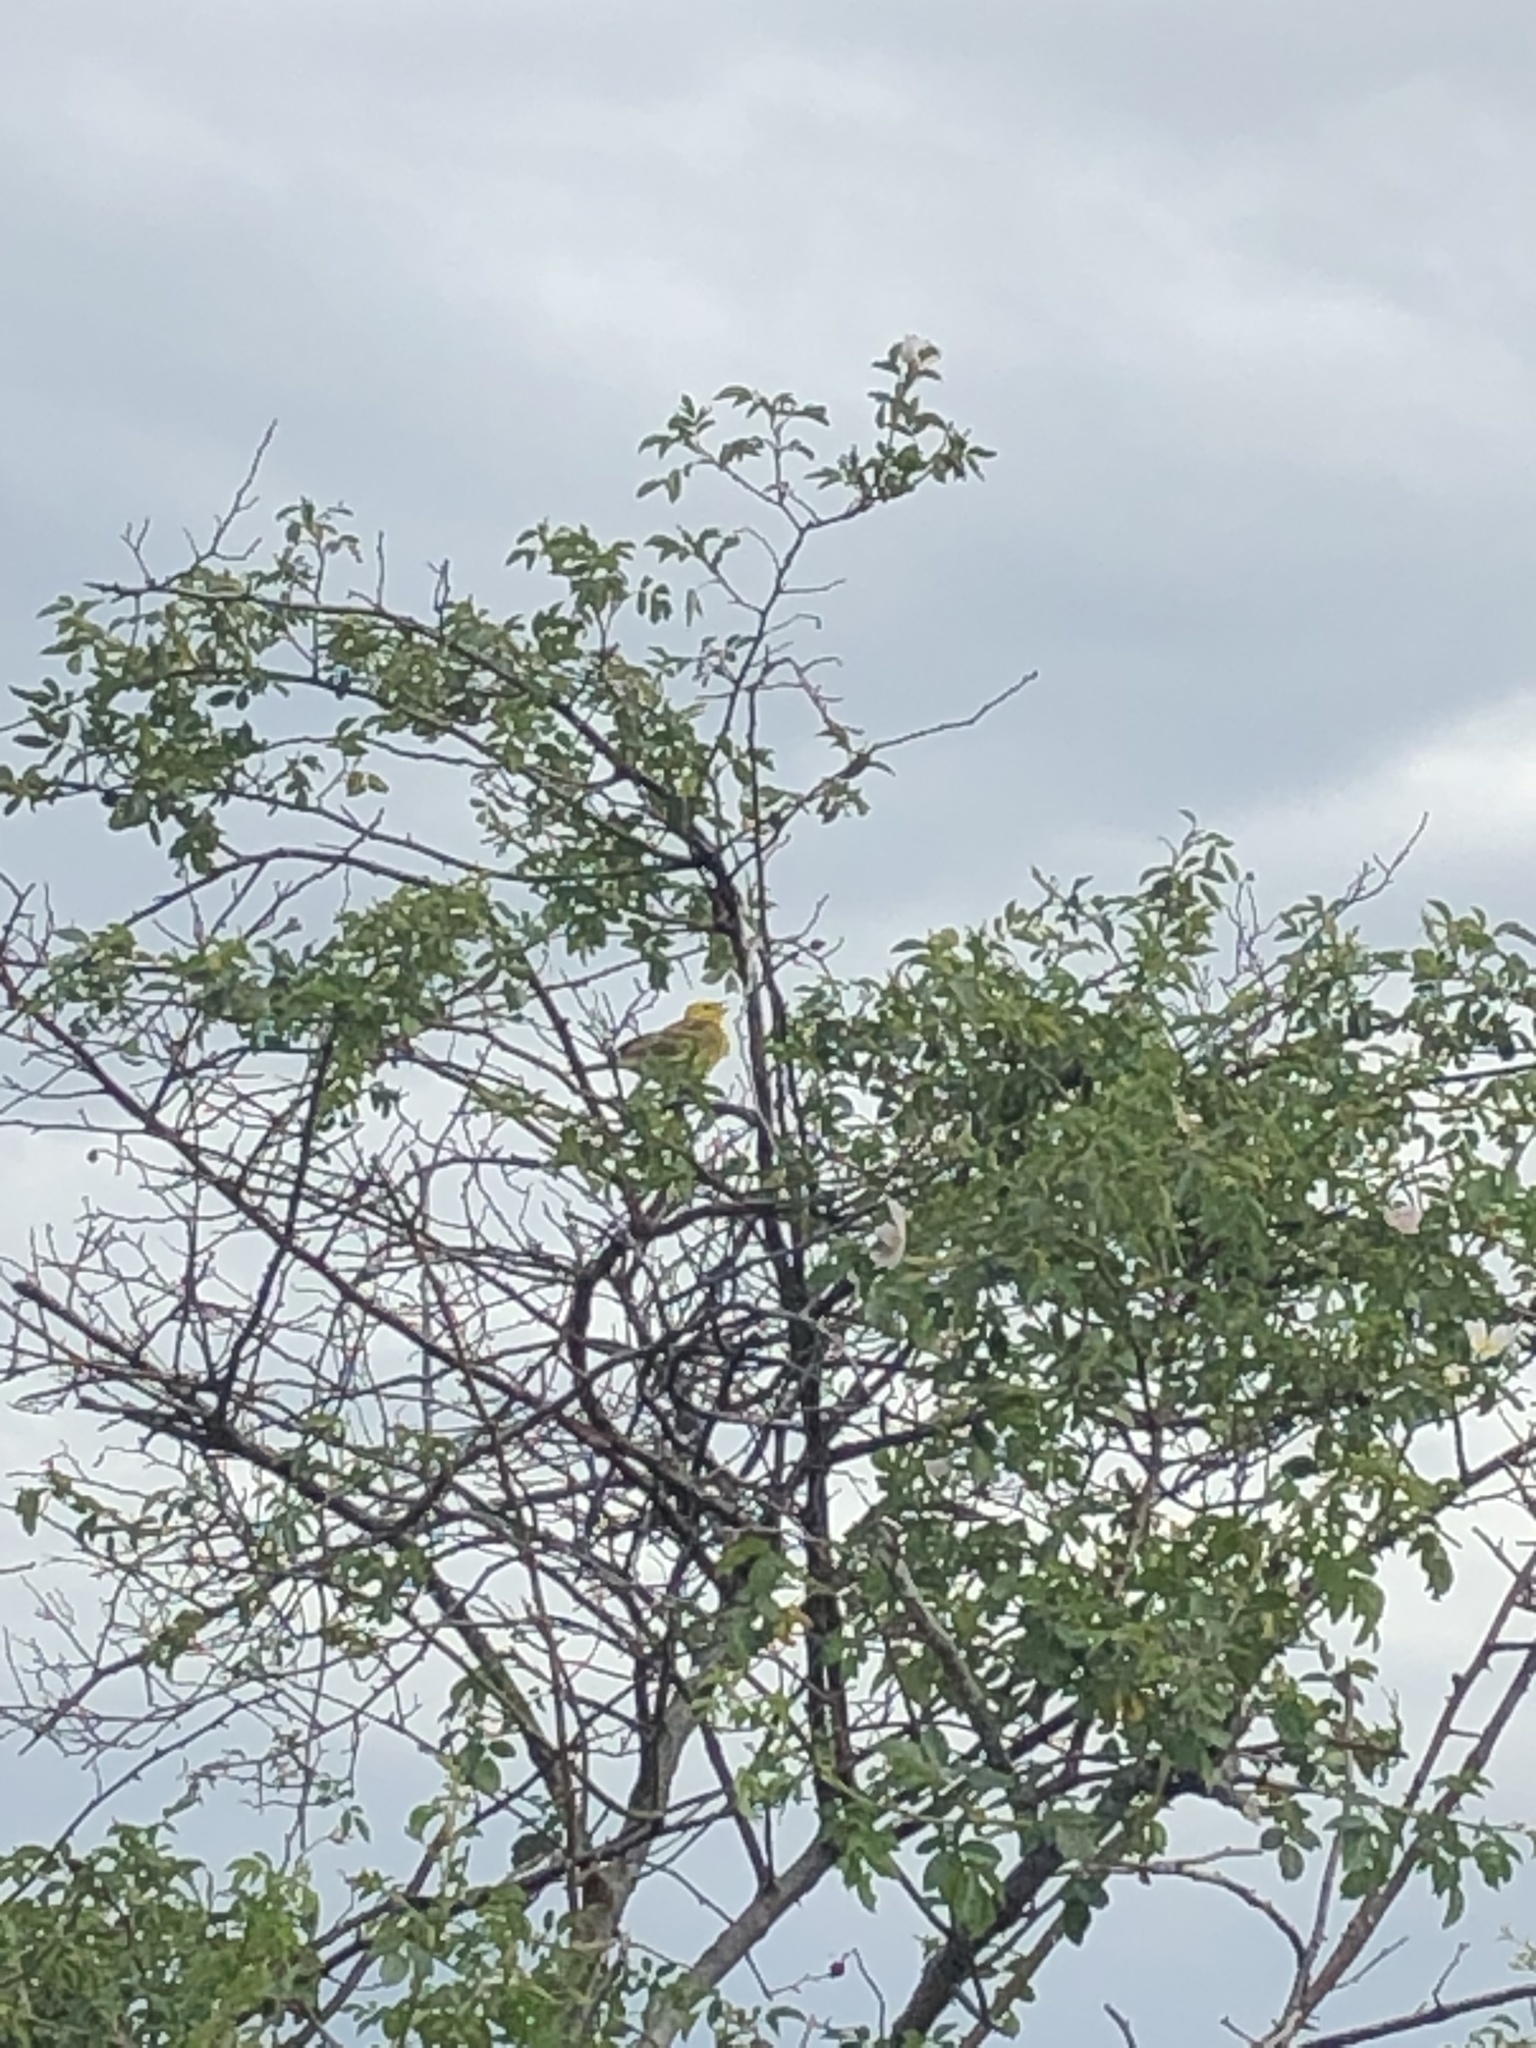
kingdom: Animalia
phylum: Chordata
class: Aves
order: Passeriformes
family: Emberizidae
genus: Emberiza
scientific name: Emberiza citrinella
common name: Yellowhammer
